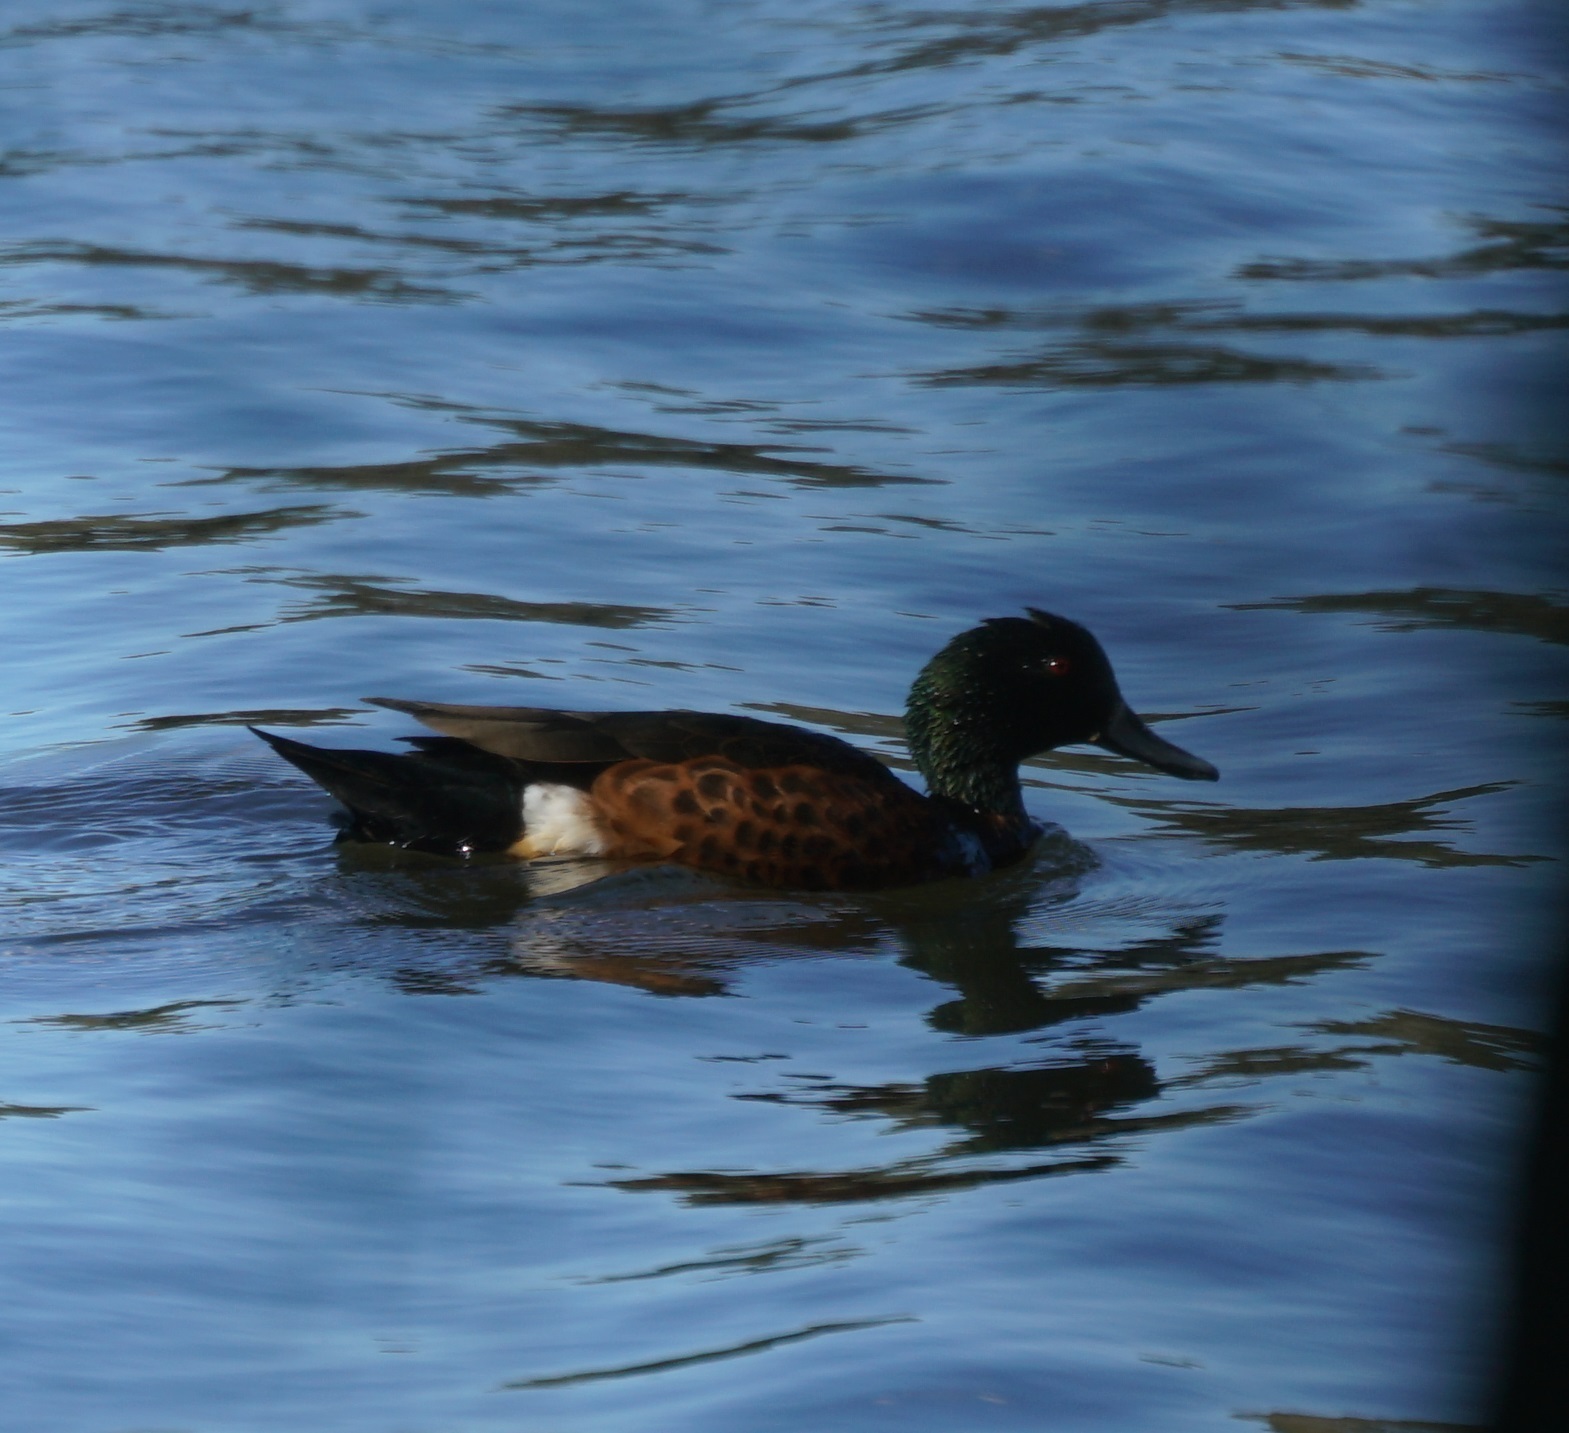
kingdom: Animalia
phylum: Chordata
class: Aves
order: Anseriformes
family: Anatidae
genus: Anas
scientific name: Anas castanea
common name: Chestnut teal
